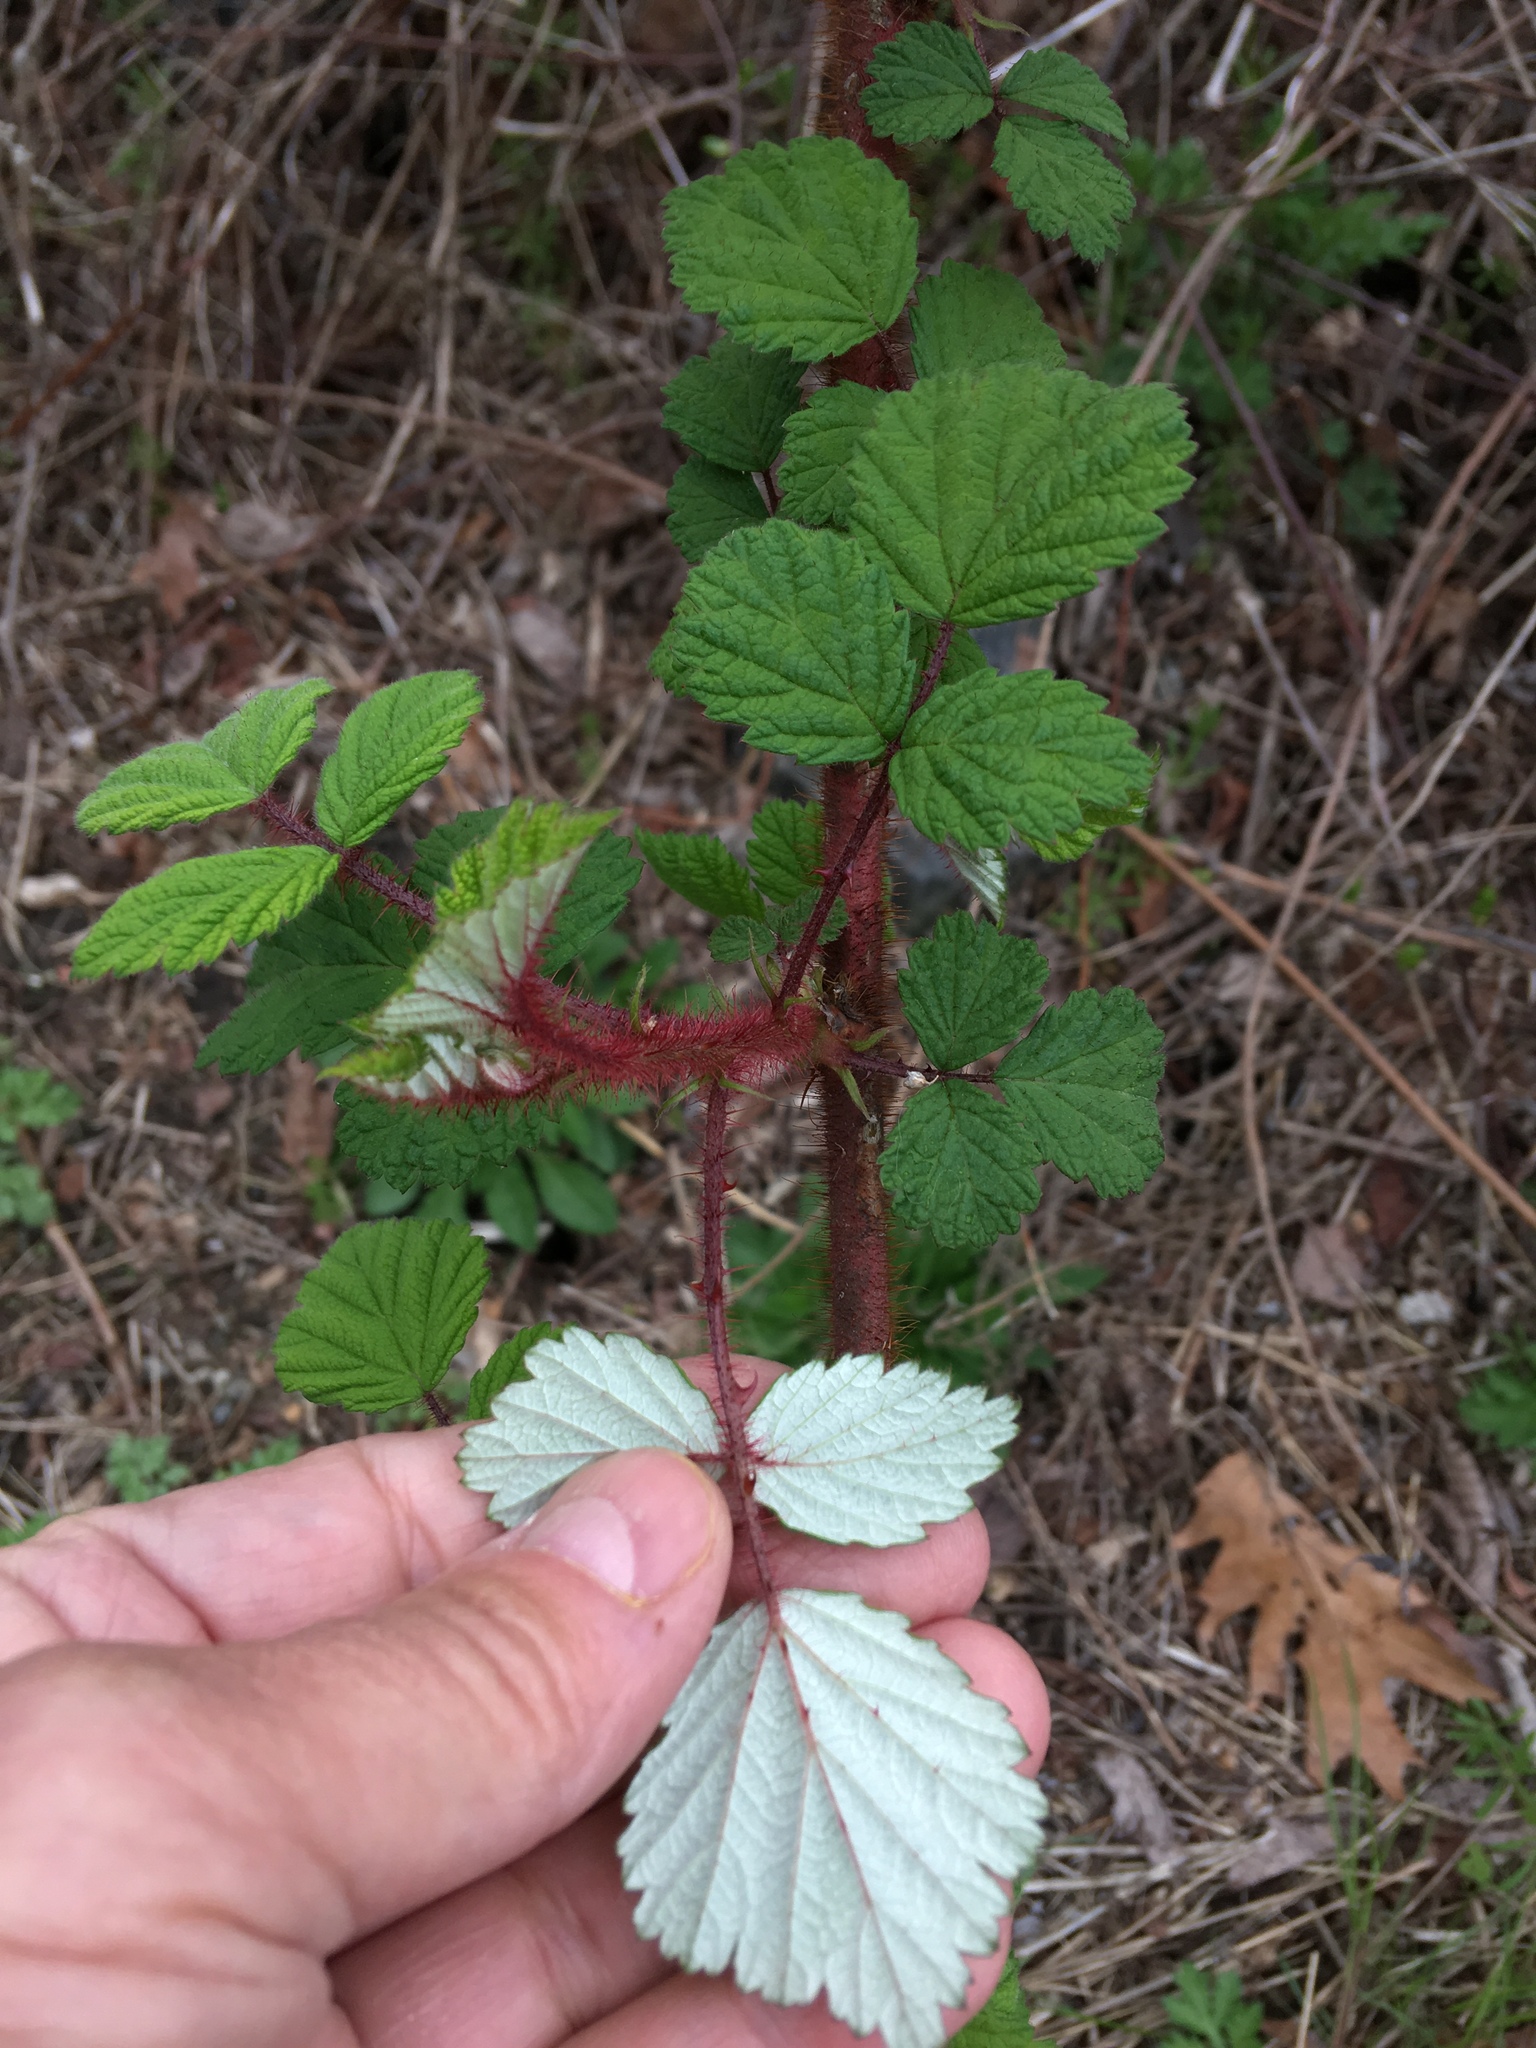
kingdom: Plantae
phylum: Tracheophyta
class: Magnoliopsida
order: Rosales
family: Rosaceae
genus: Rubus
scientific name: Rubus phoenicolasius
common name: Japanese wineberry
